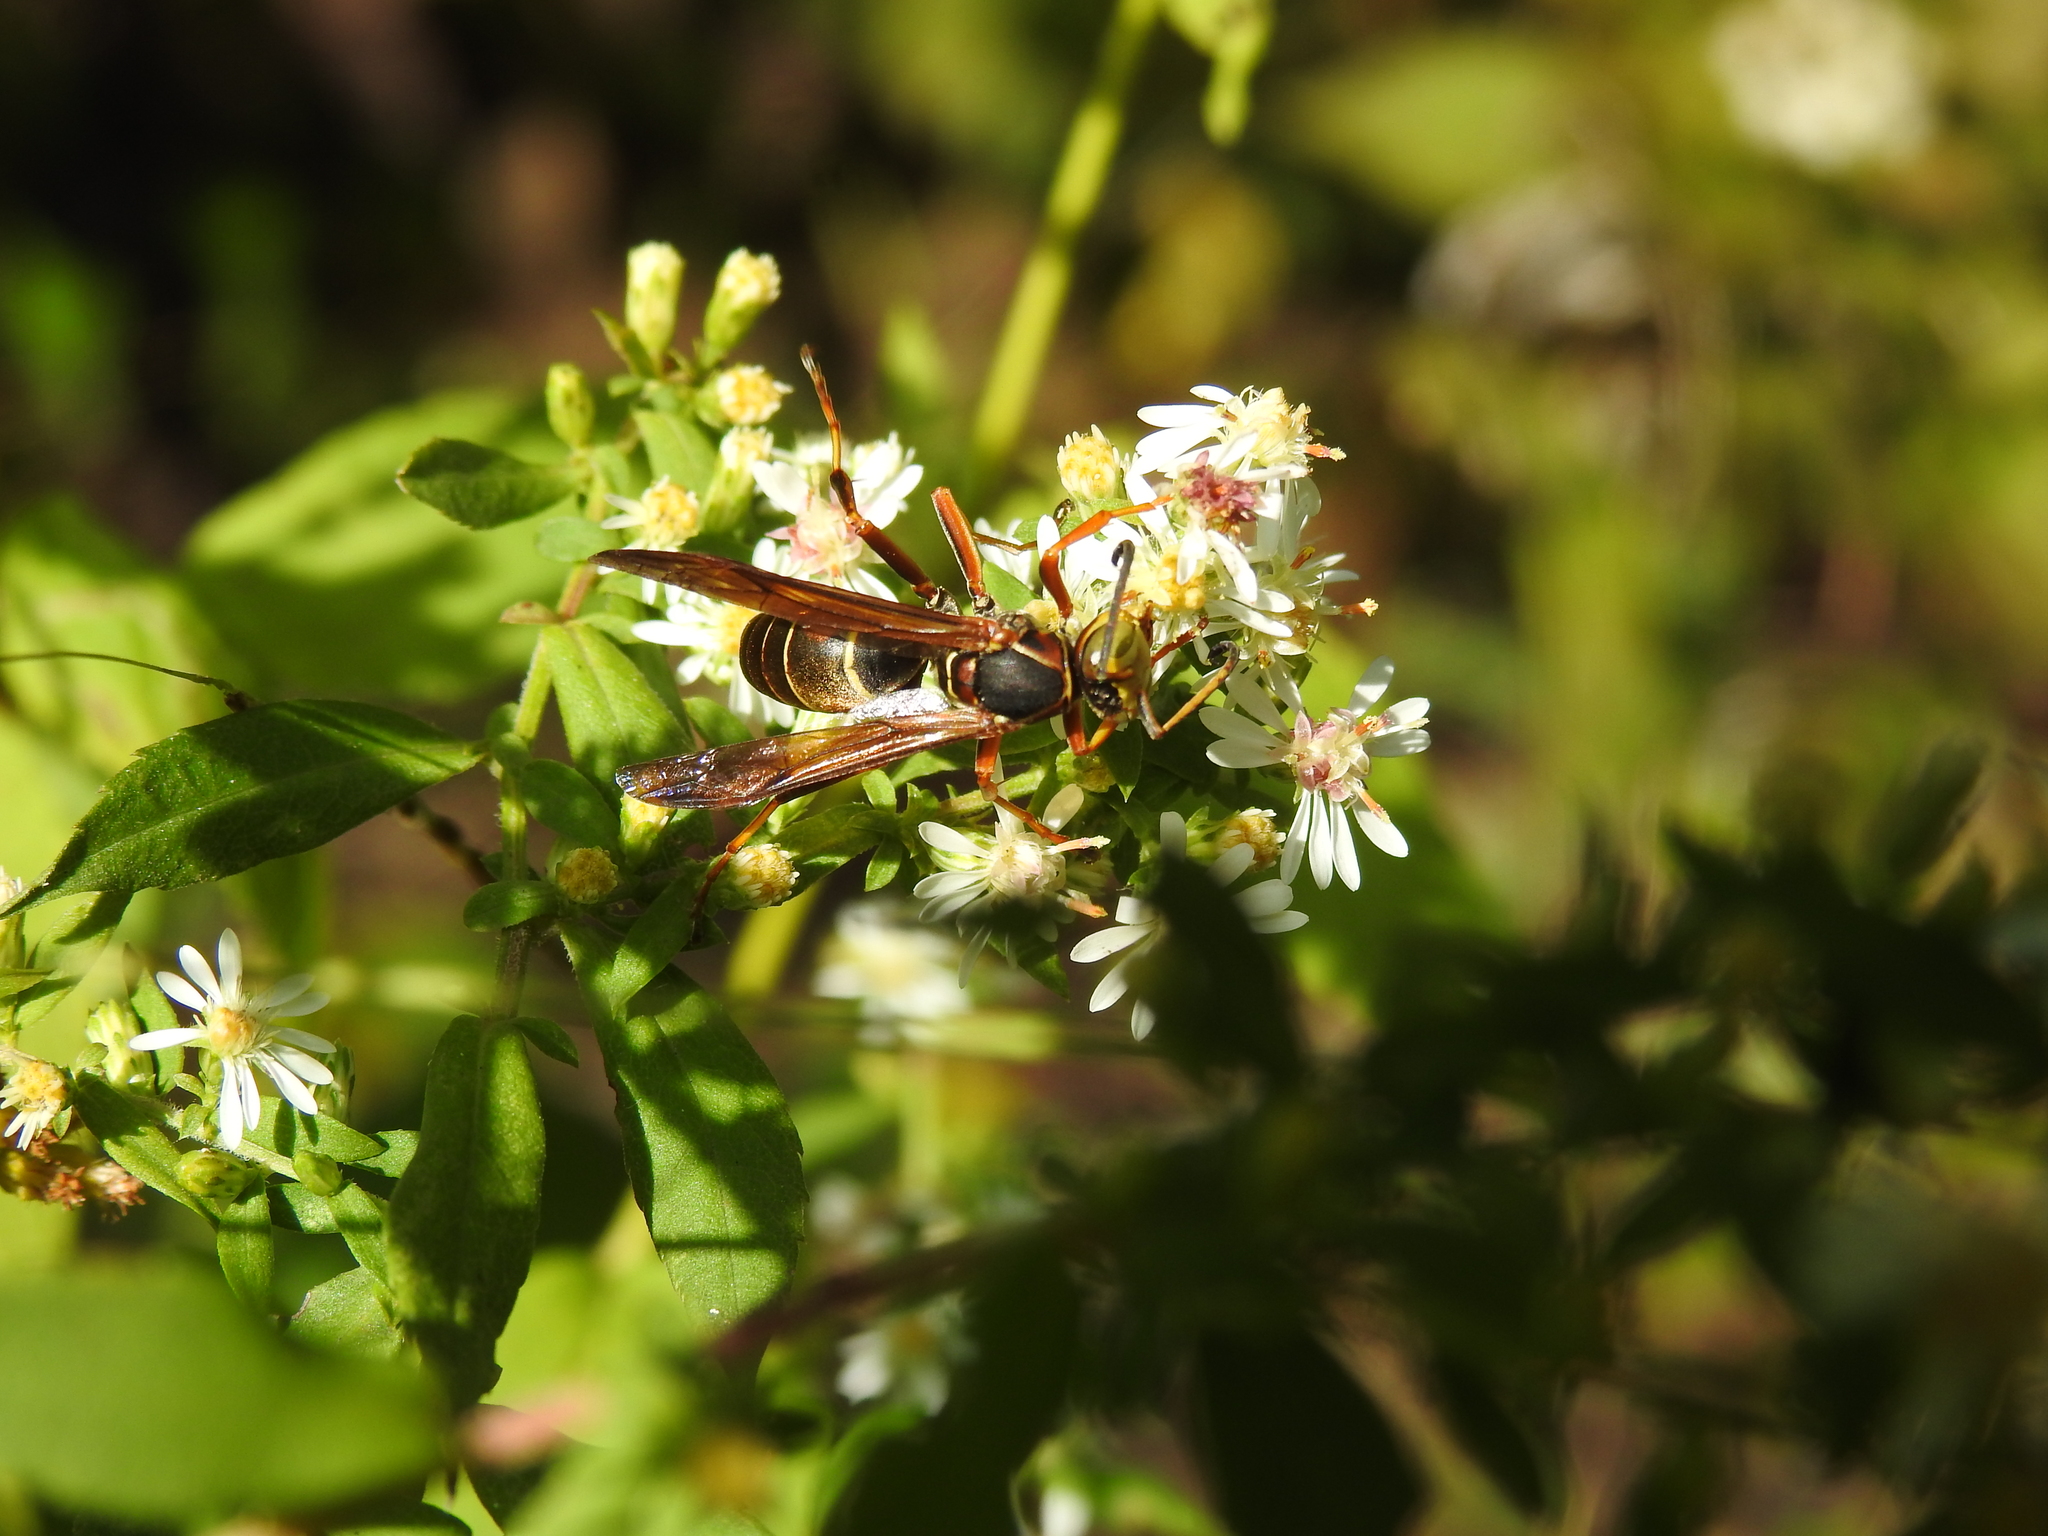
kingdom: Animalia
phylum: Arthropoda
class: Insecta
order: Hymenoptera
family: Eumenidae
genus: Polistes
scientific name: Polistes fuscatus
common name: Dark paper wasp
